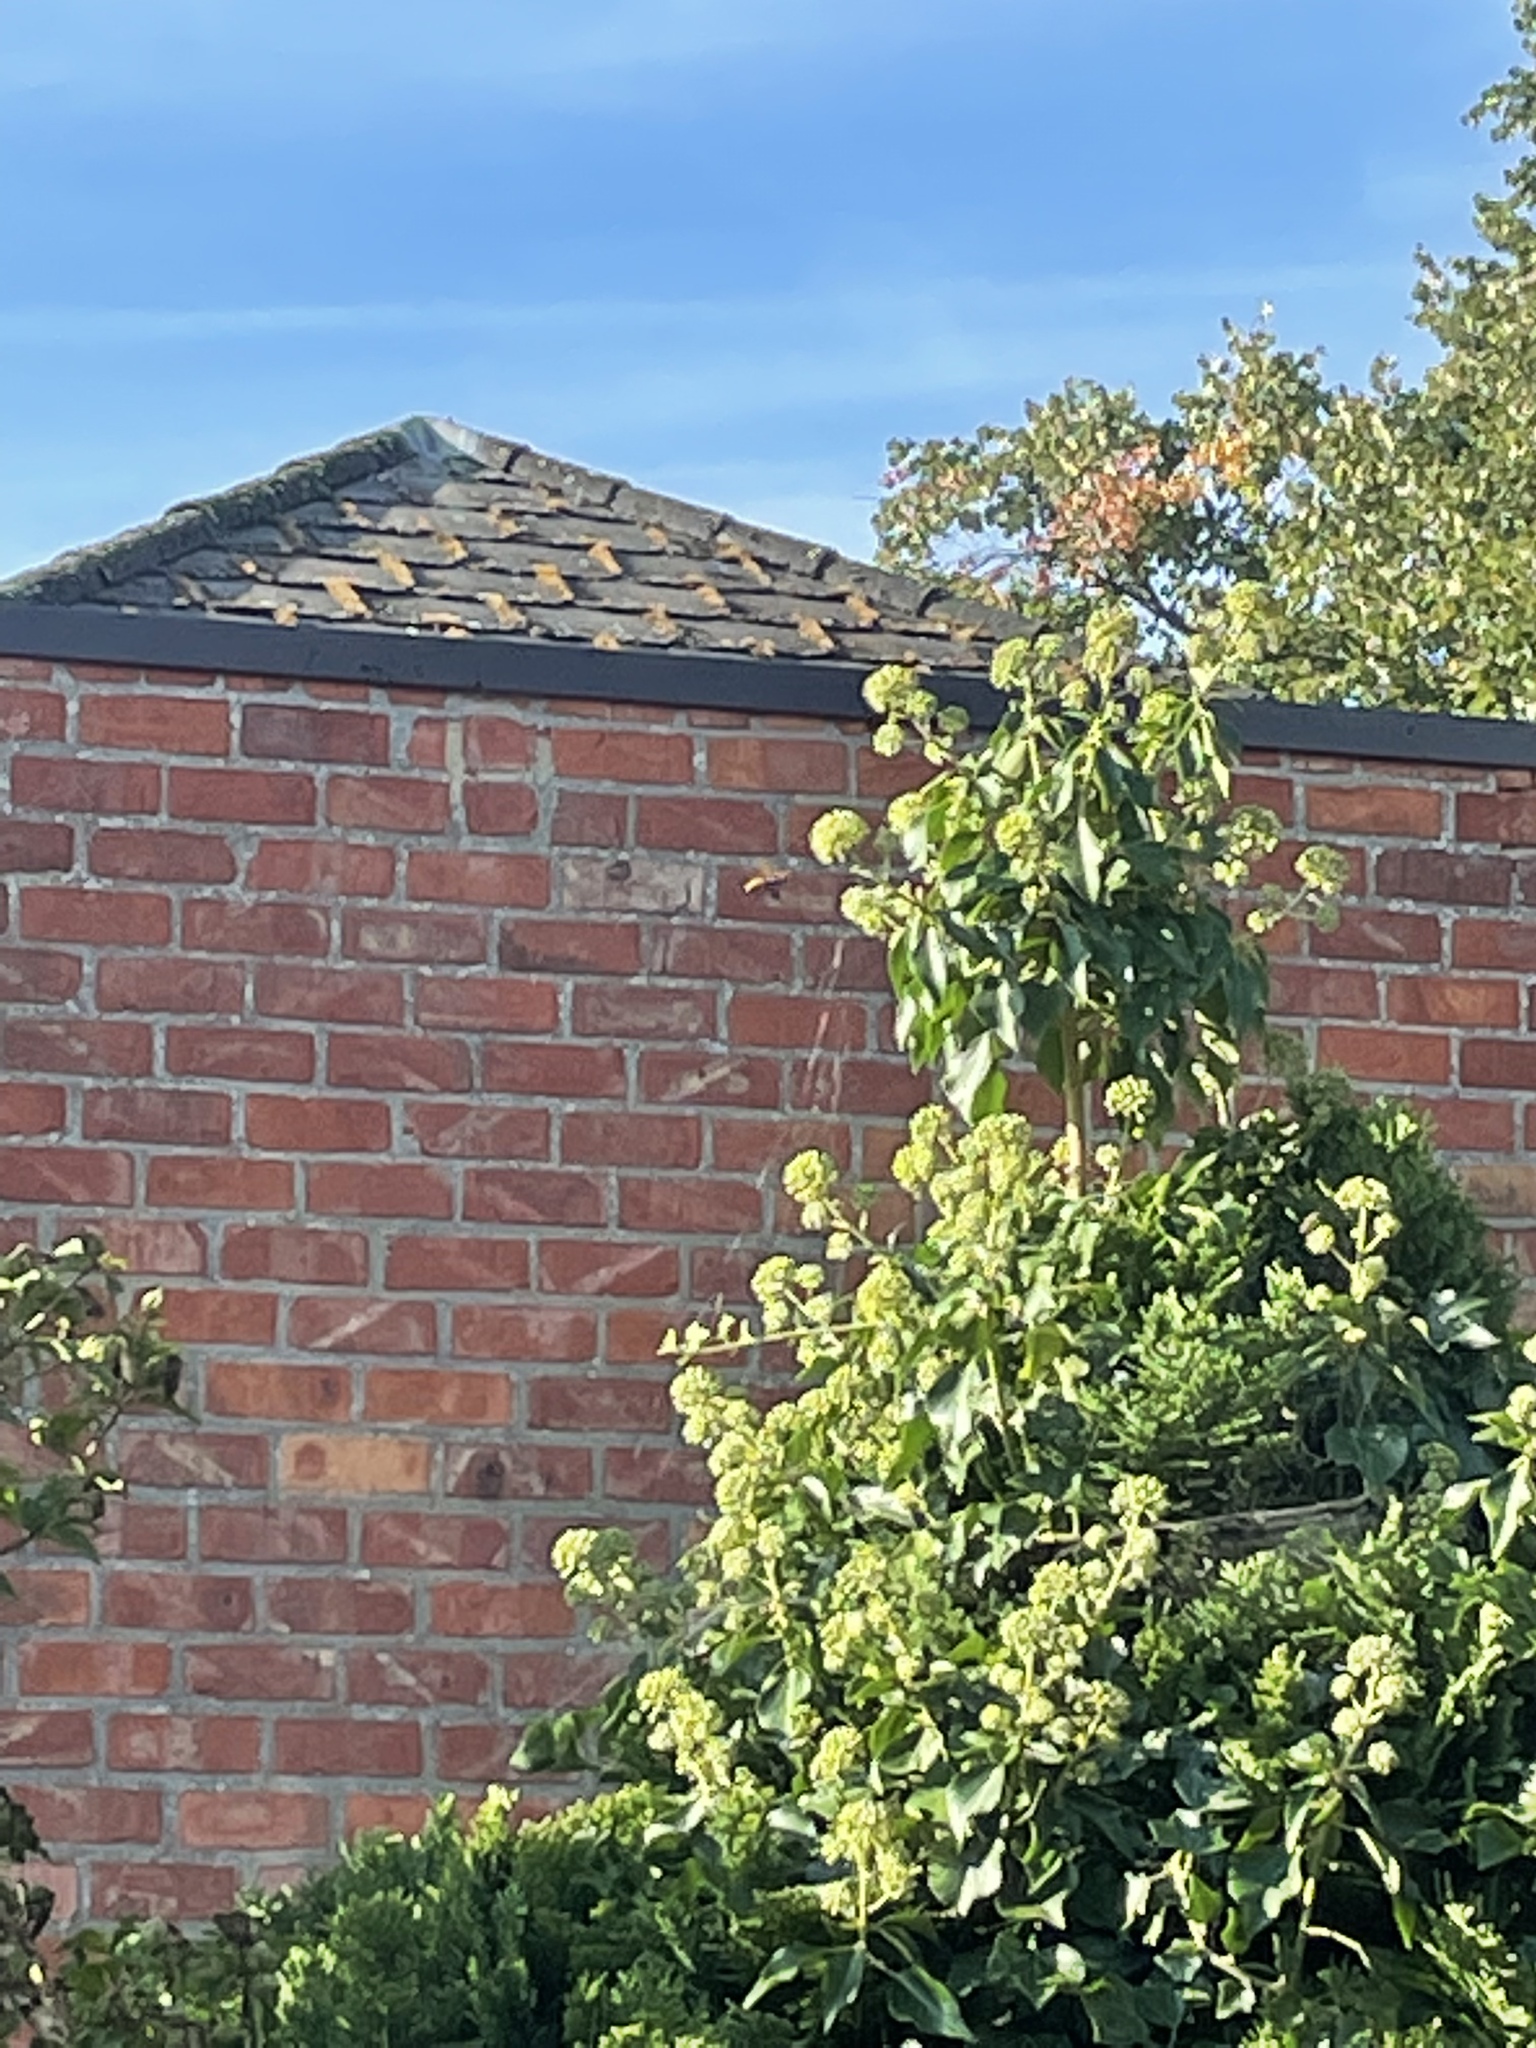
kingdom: Animalia
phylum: Arthropoda
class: Insecta
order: Hymenoptera
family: Vespidae
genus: Vespa
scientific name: Vespa crabro
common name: Hornet
